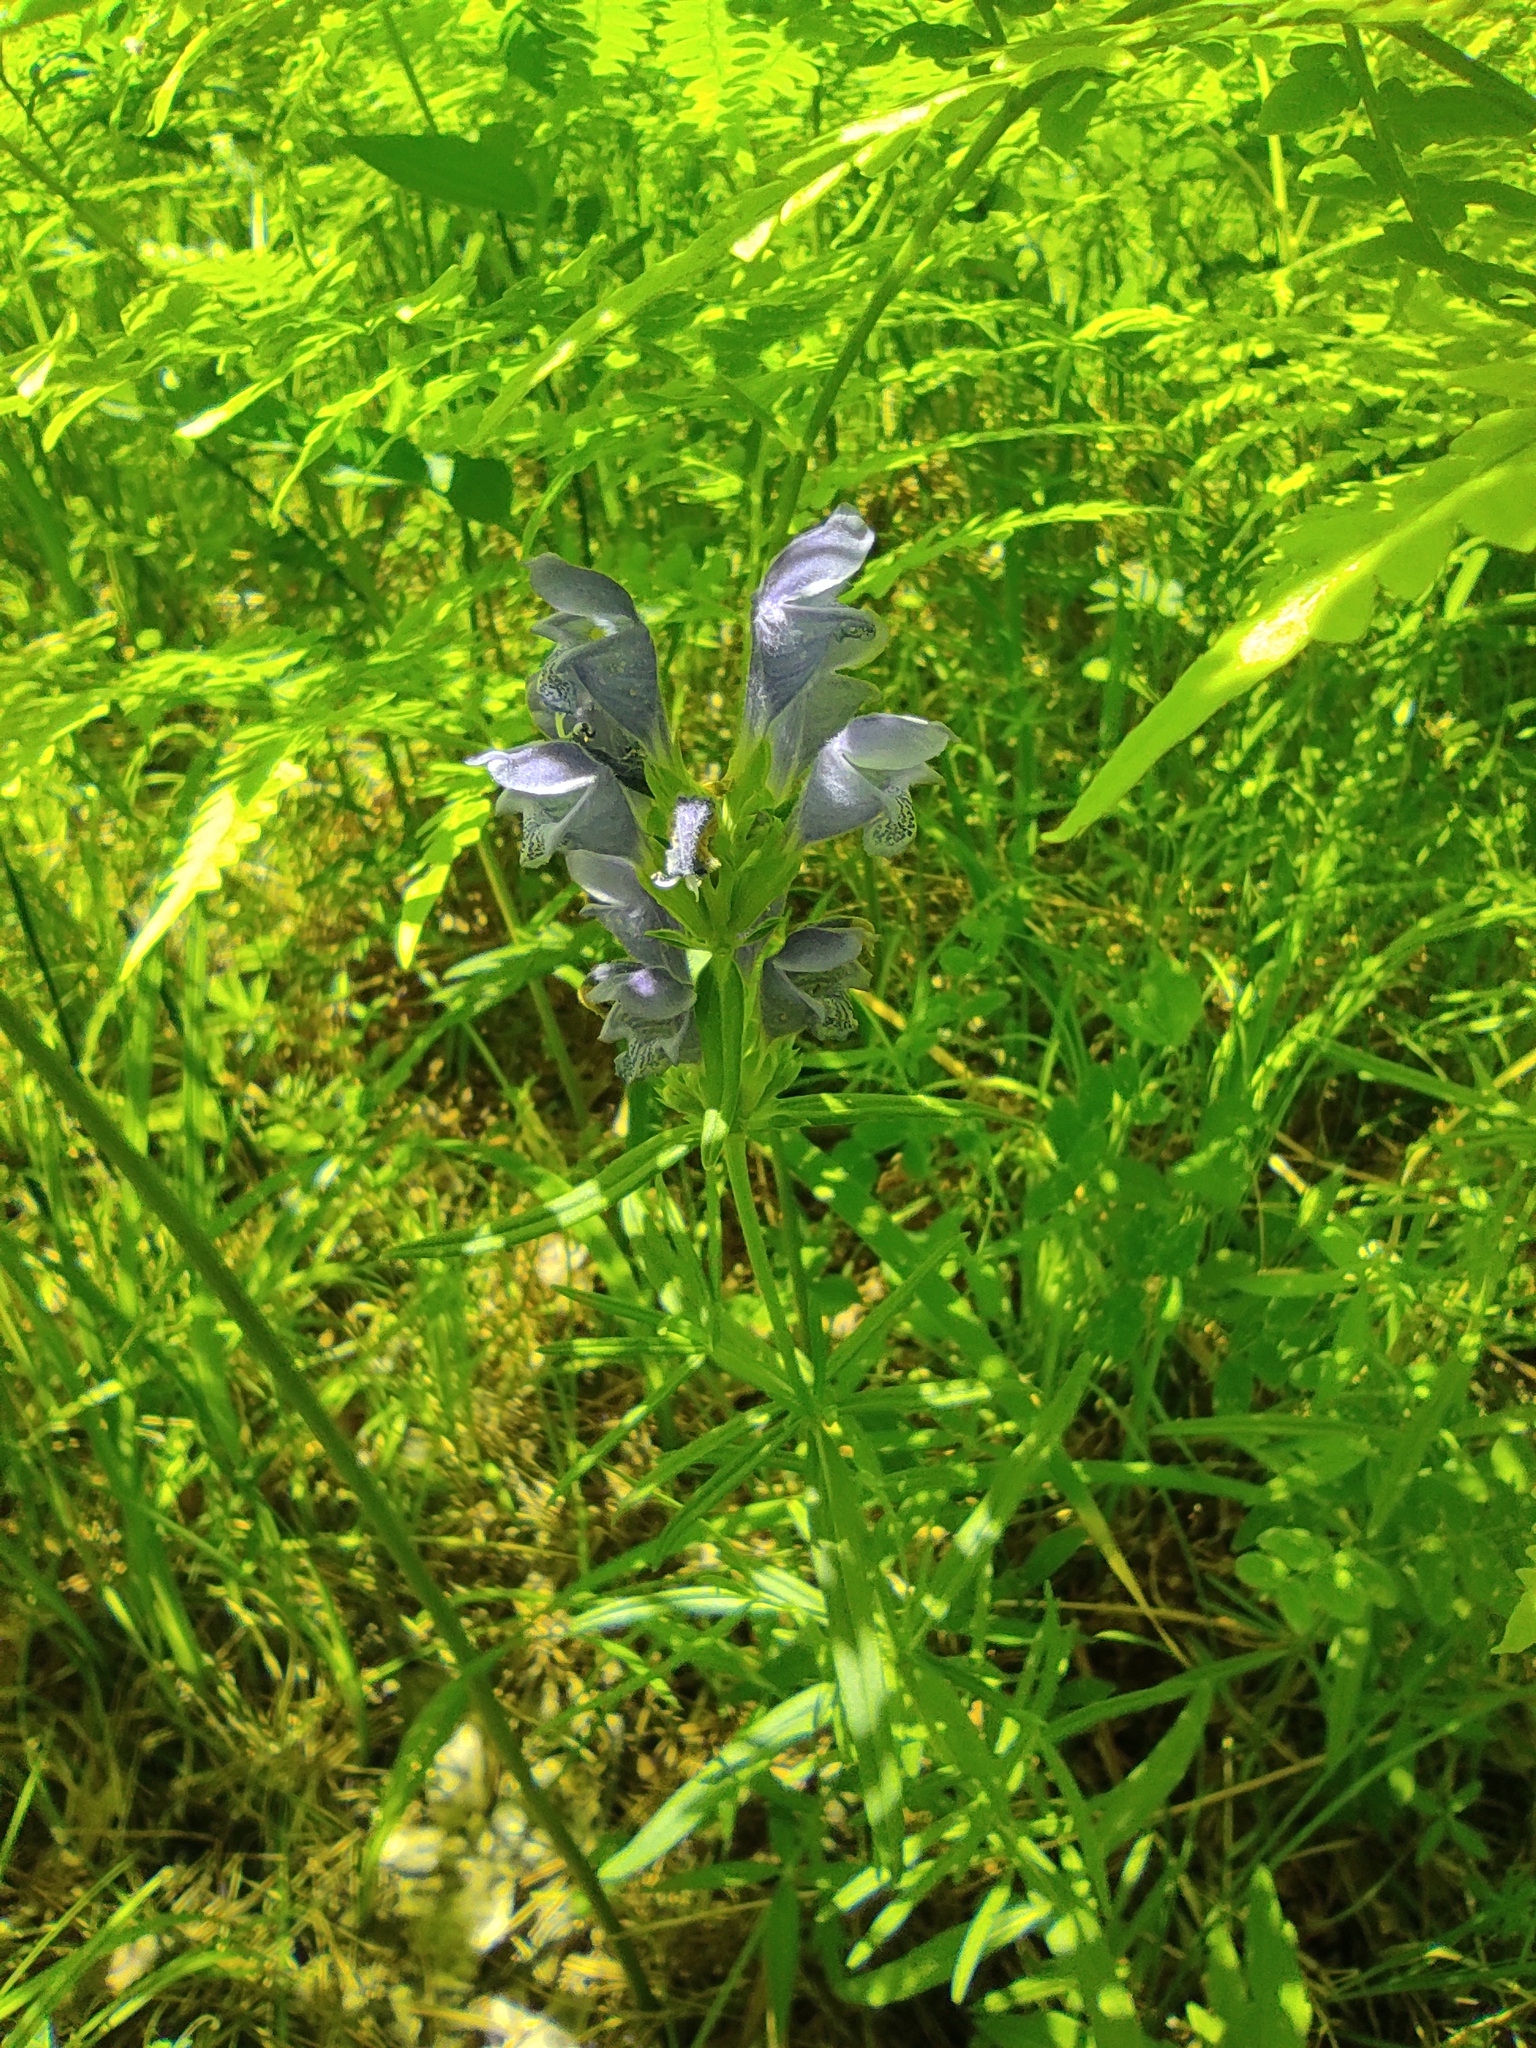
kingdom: Plantae
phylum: Tracheophyta
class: Magnoliopsida
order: Lamiales
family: Lamiaceae
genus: Dracocephalum
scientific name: Dracocephalum ruyschiana
